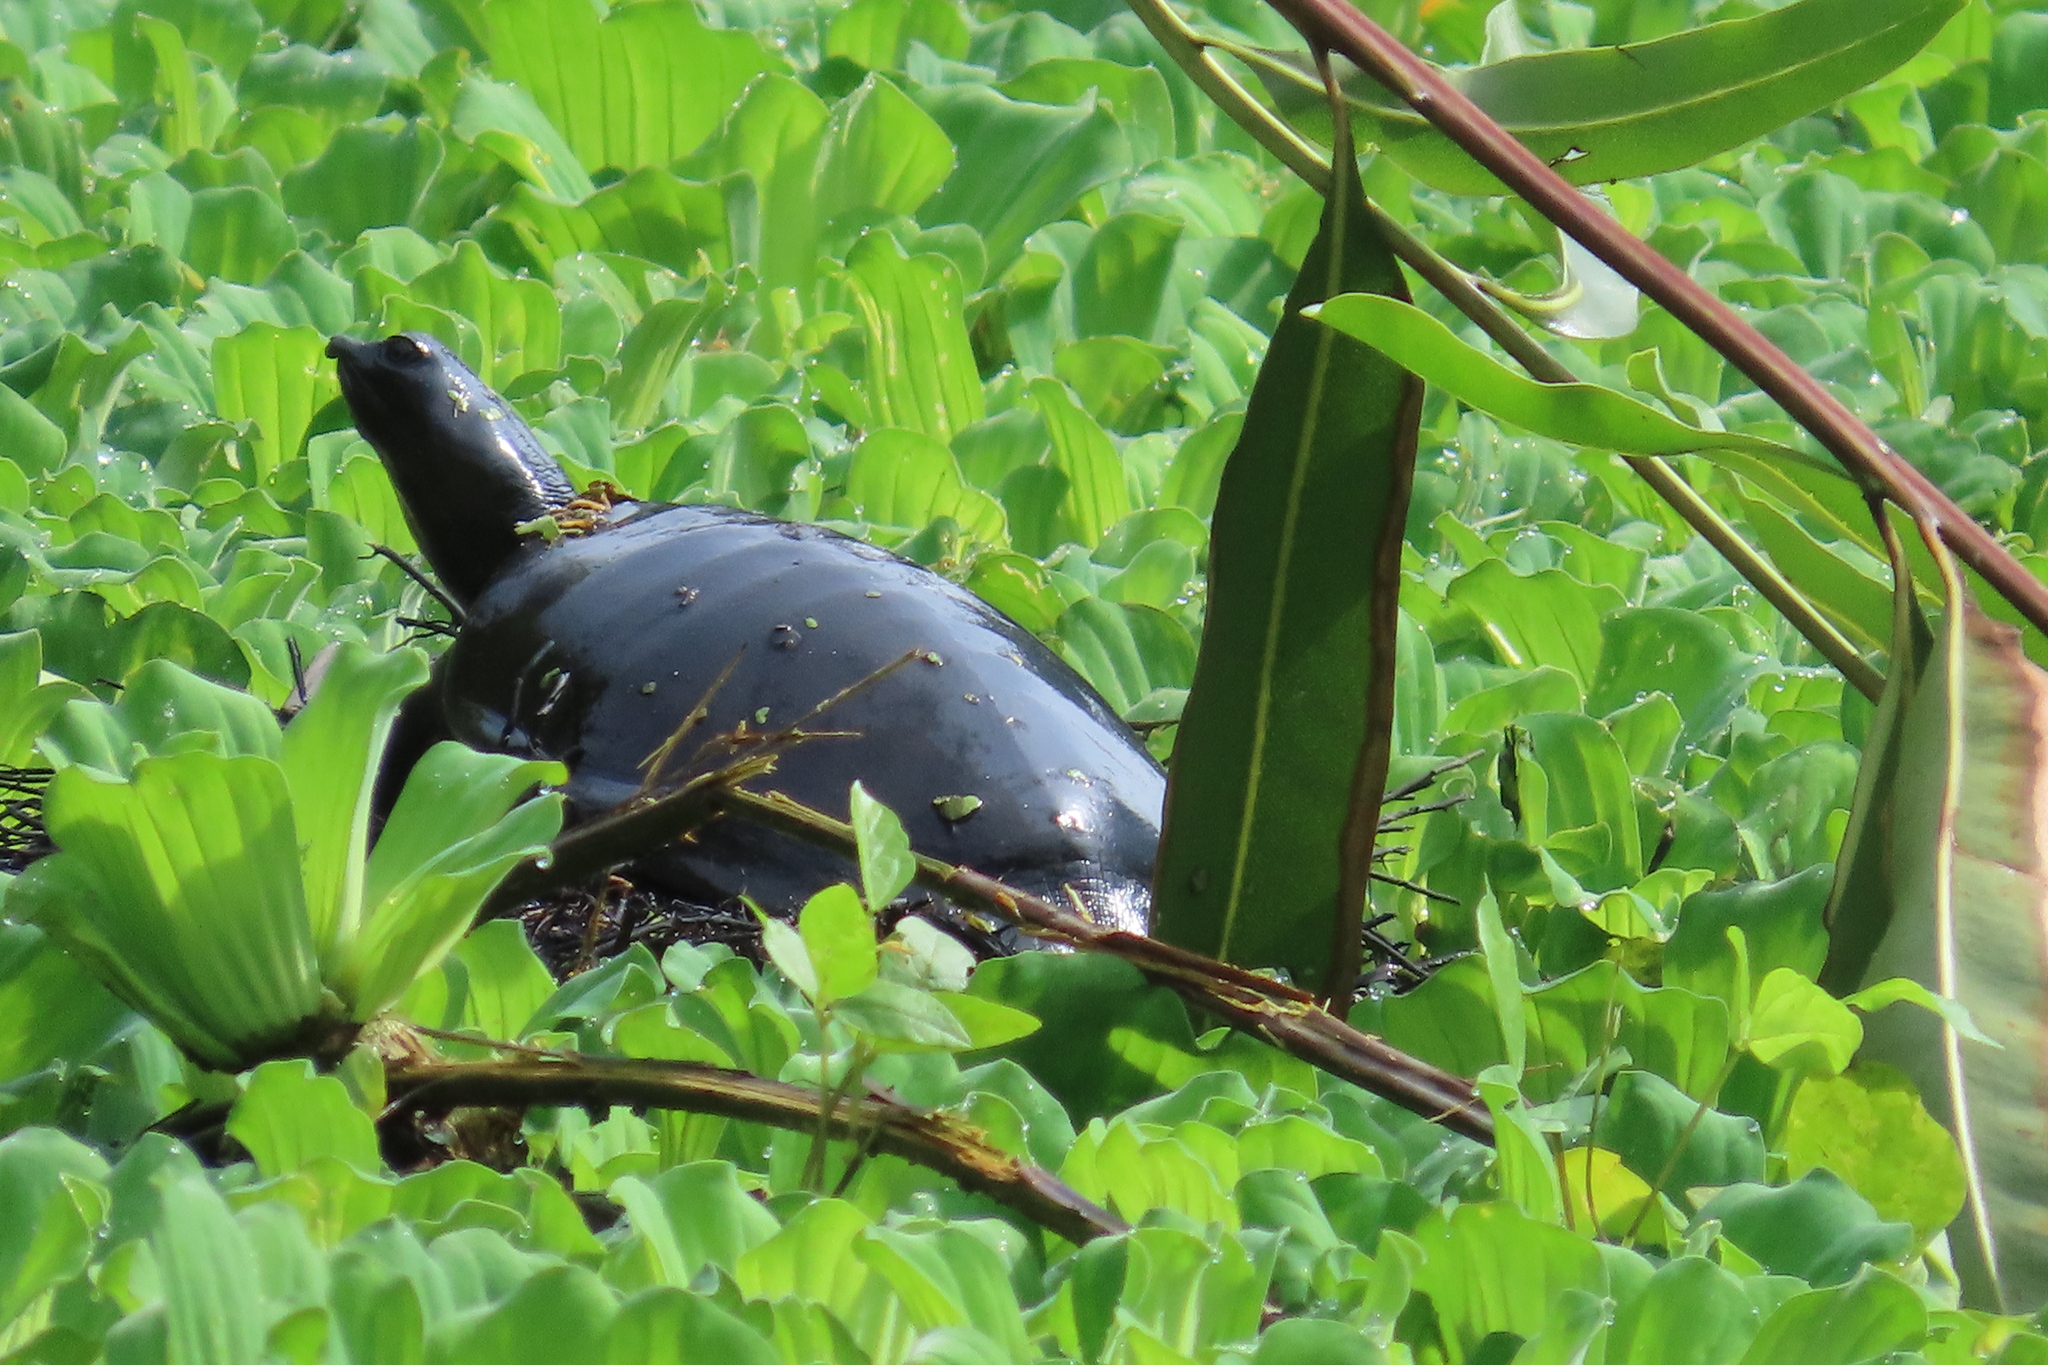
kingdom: Animalia
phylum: Chordata
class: Testudines
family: Trionychidae
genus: Lissemys
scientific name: Lissemys punctata
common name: Indian flap-shelled turtle
